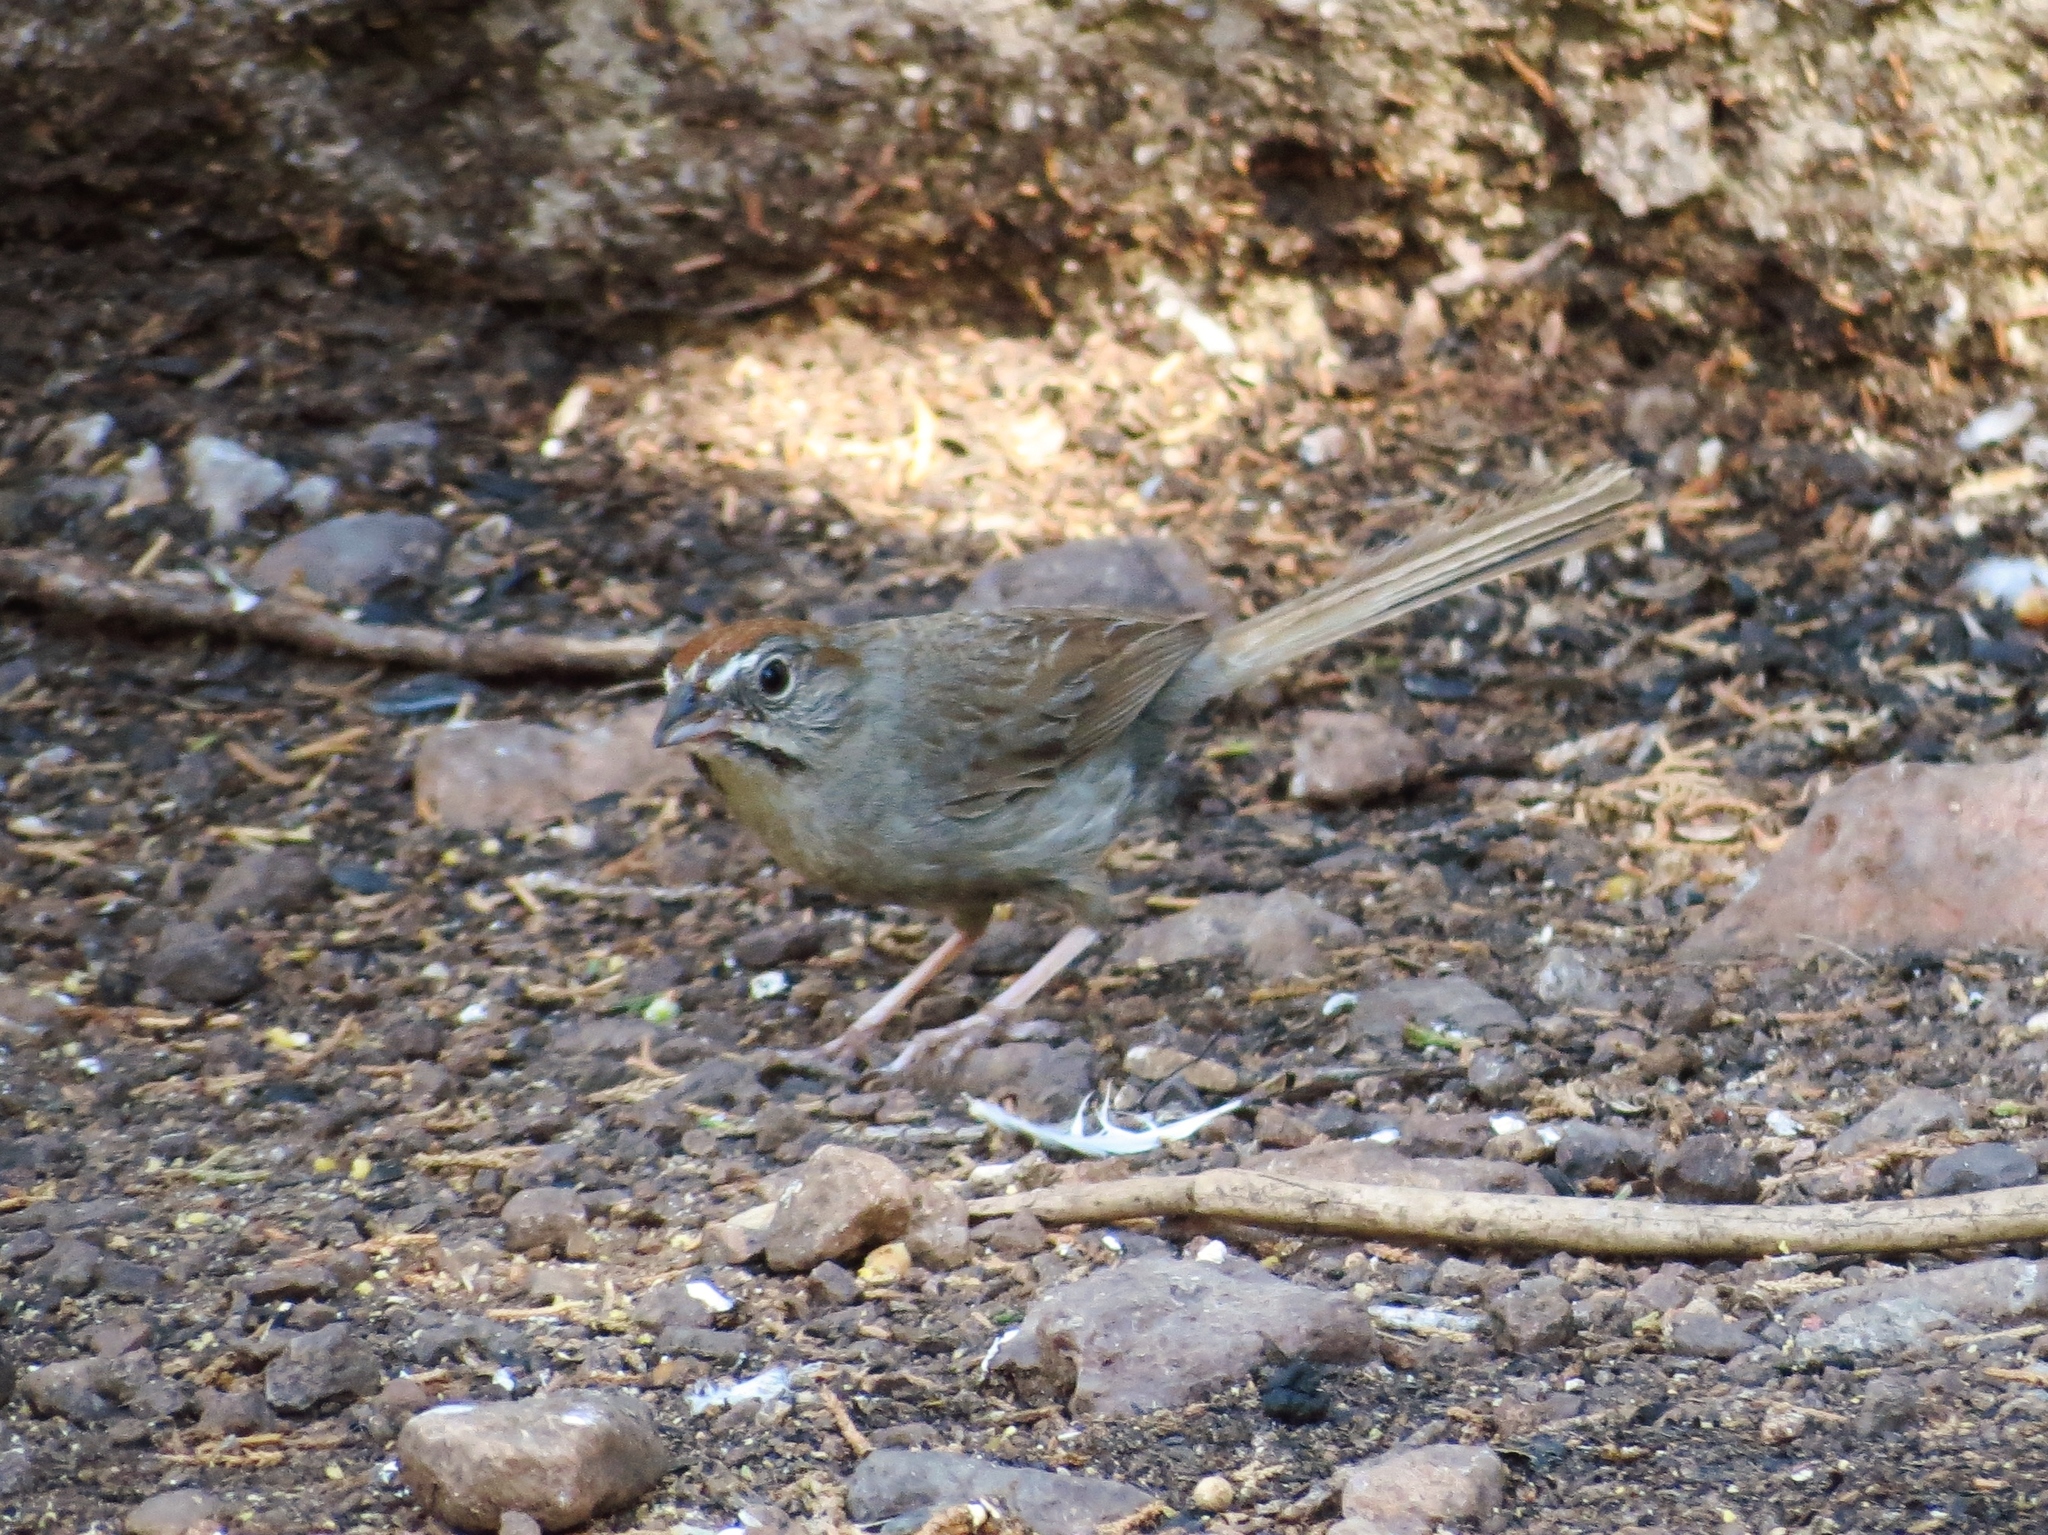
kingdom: Animalia
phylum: Chordata
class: Aves
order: Passeriformes
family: Passerellidae
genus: Aimophila
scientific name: Aimophila ruficeps
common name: Rufous-crowned sparrow
